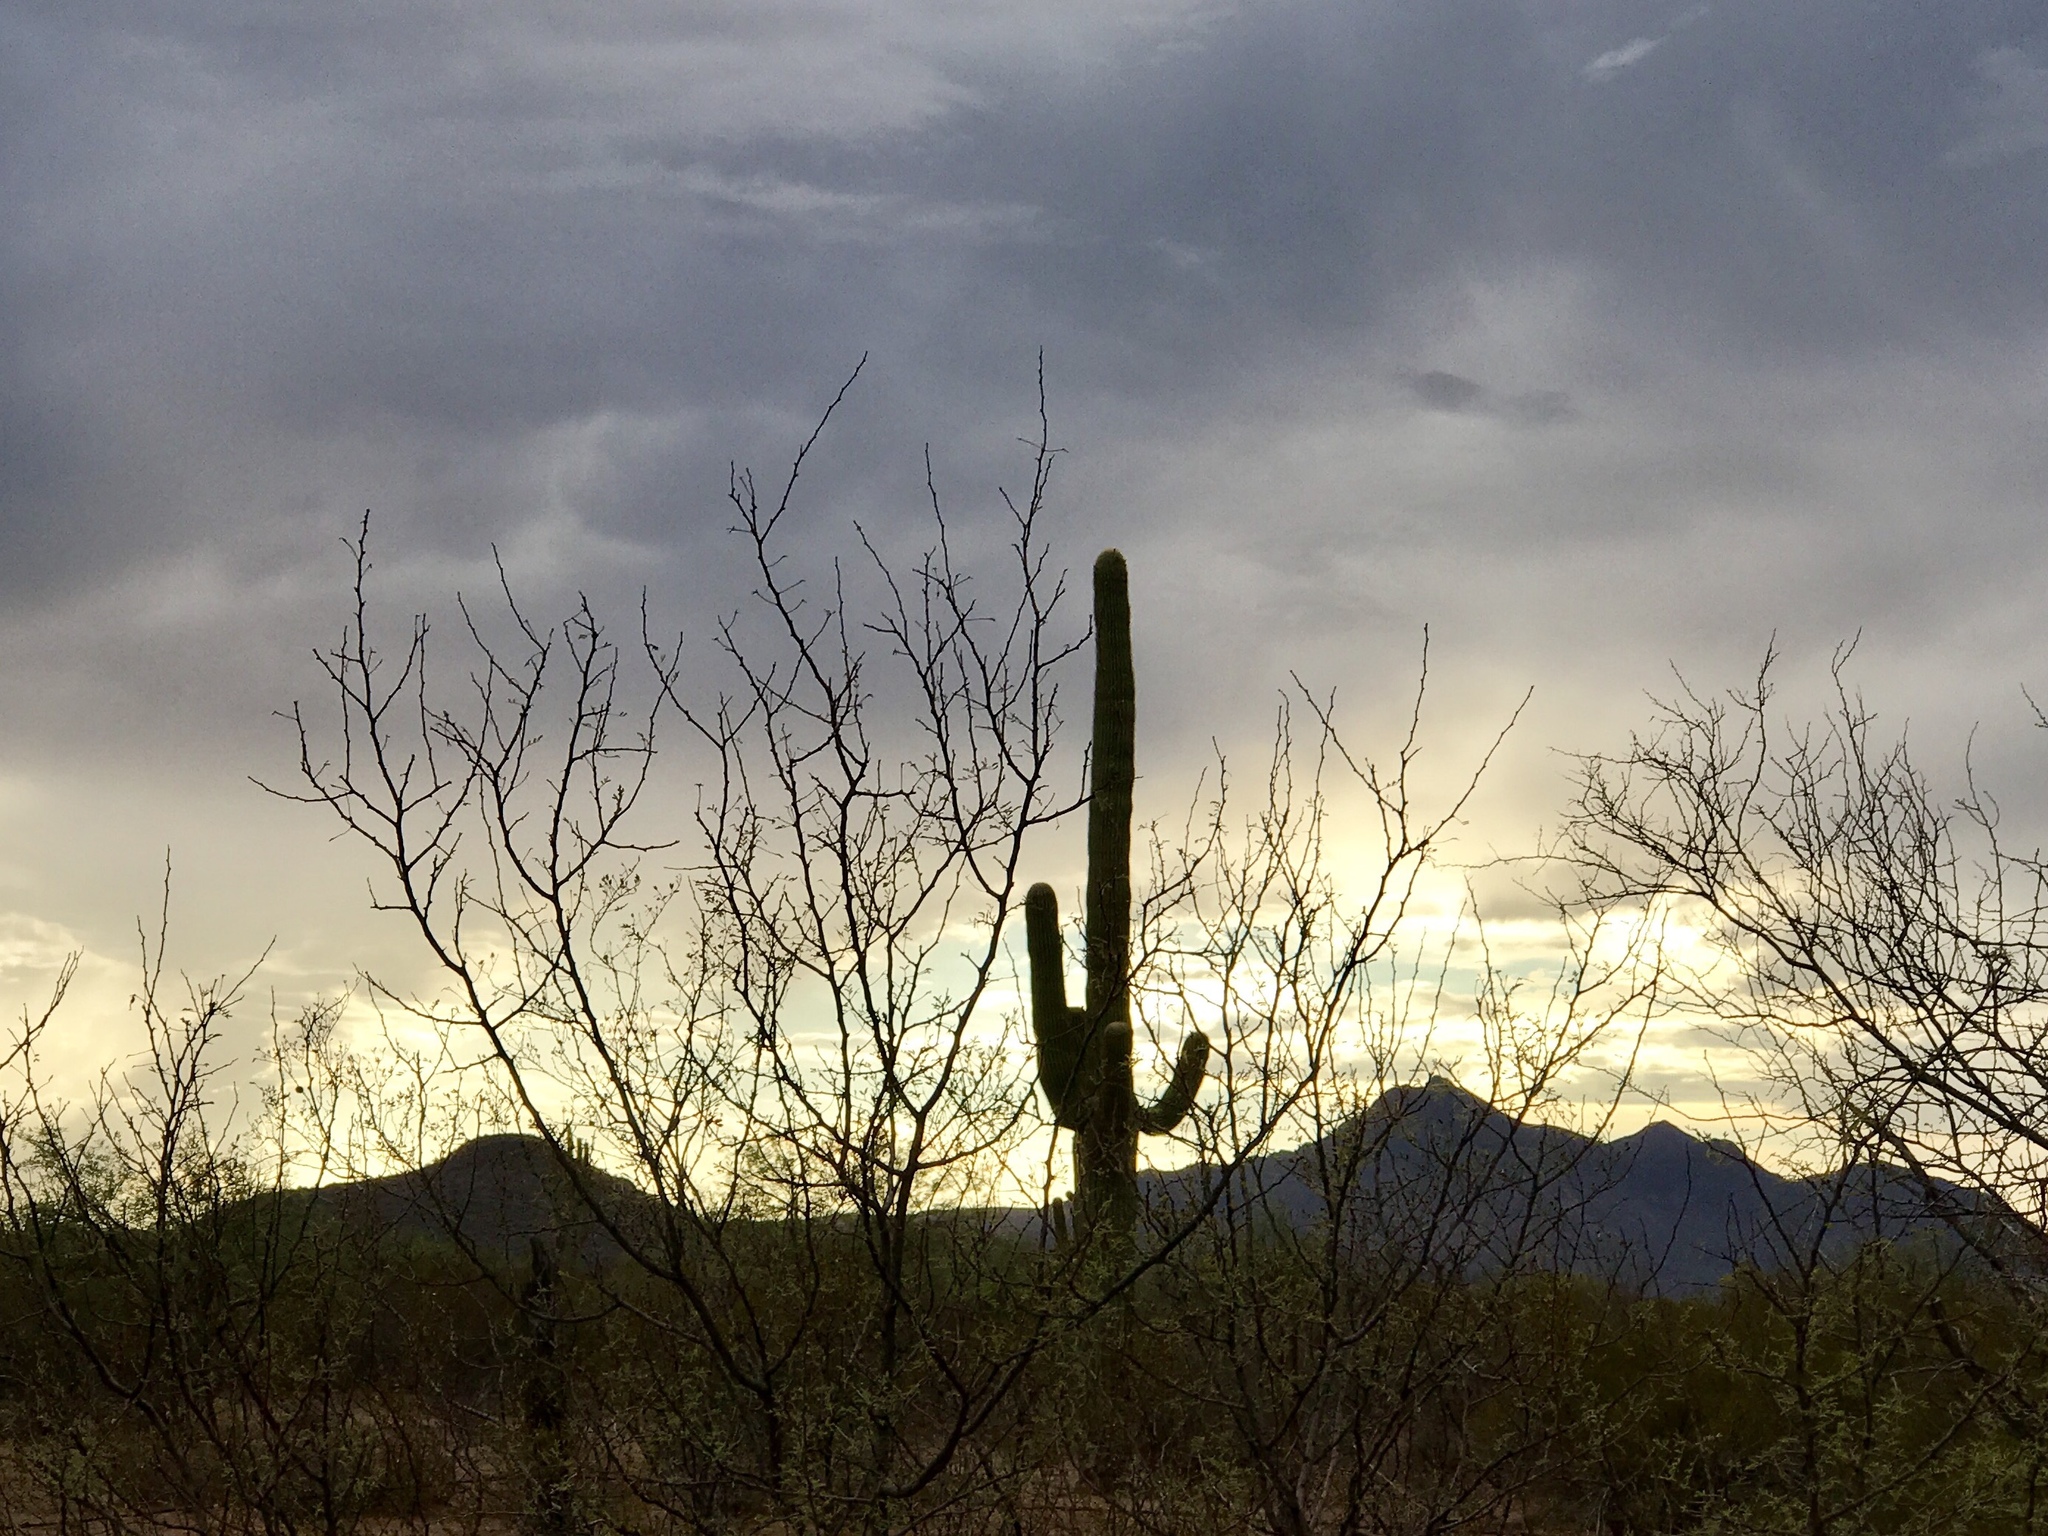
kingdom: Plantae
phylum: Tracheophyta
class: Magnoliopsida
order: Caryophyllales
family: Cactaceae
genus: Carnegiea
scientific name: Carnegiea gigantea
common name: Saguaro
